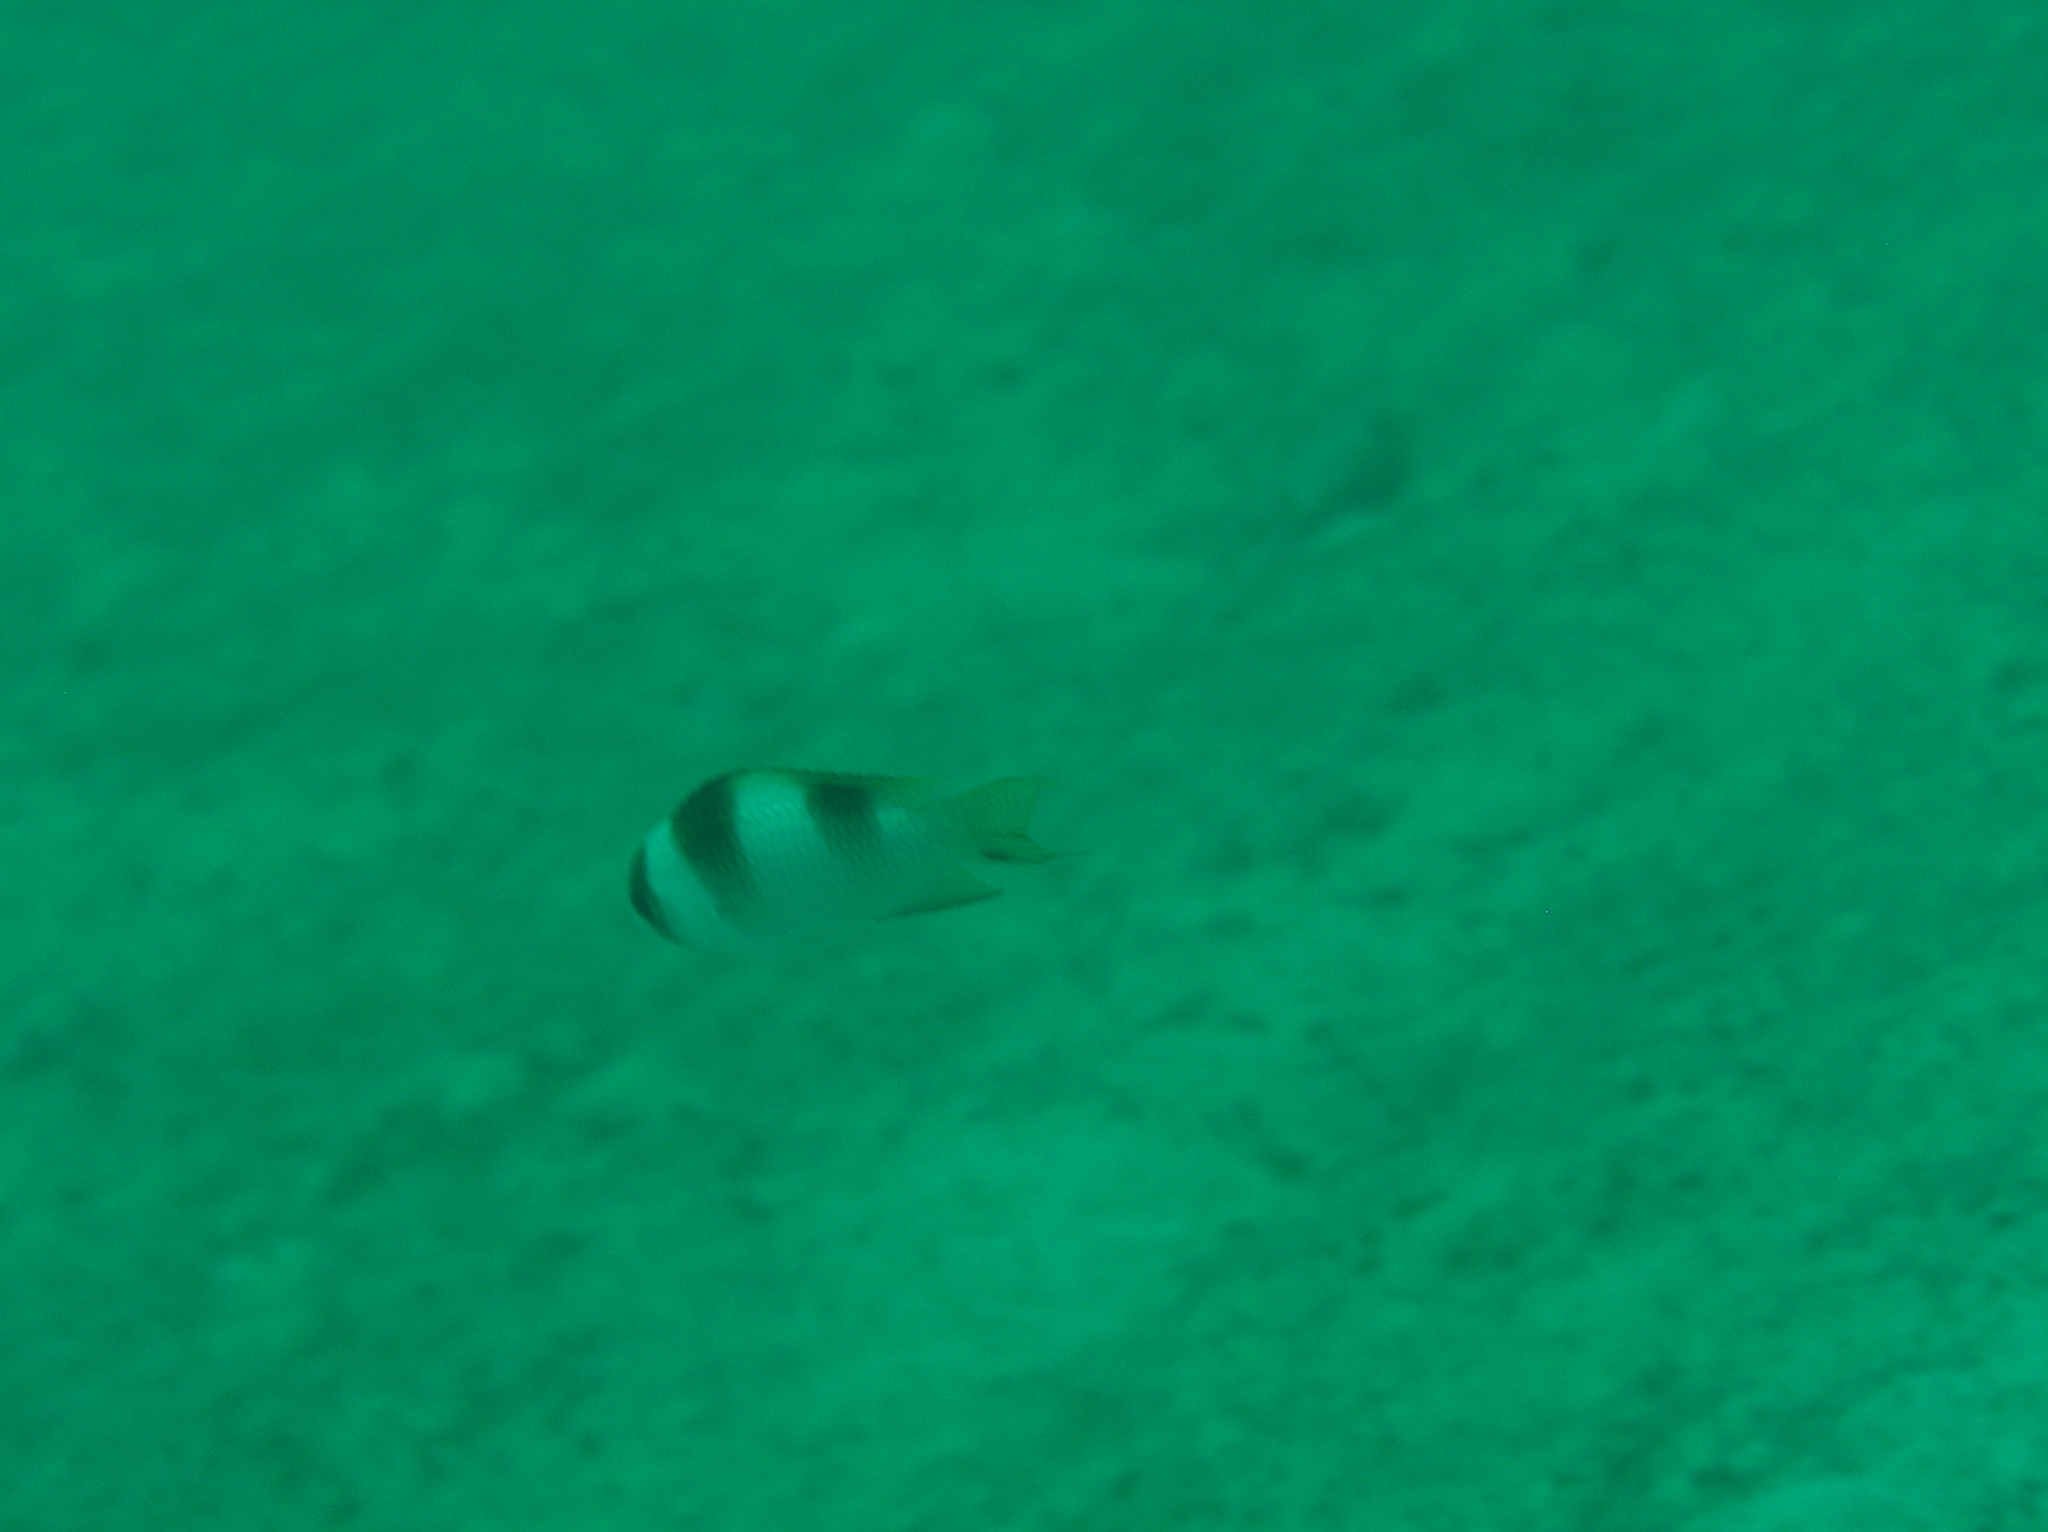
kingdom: Animalia
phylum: Chordata
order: Perciformes
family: Pomacentridae
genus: Amblypomacentrus
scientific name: Amblypomacentrus breviceps
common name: Black-banded demoiselle
